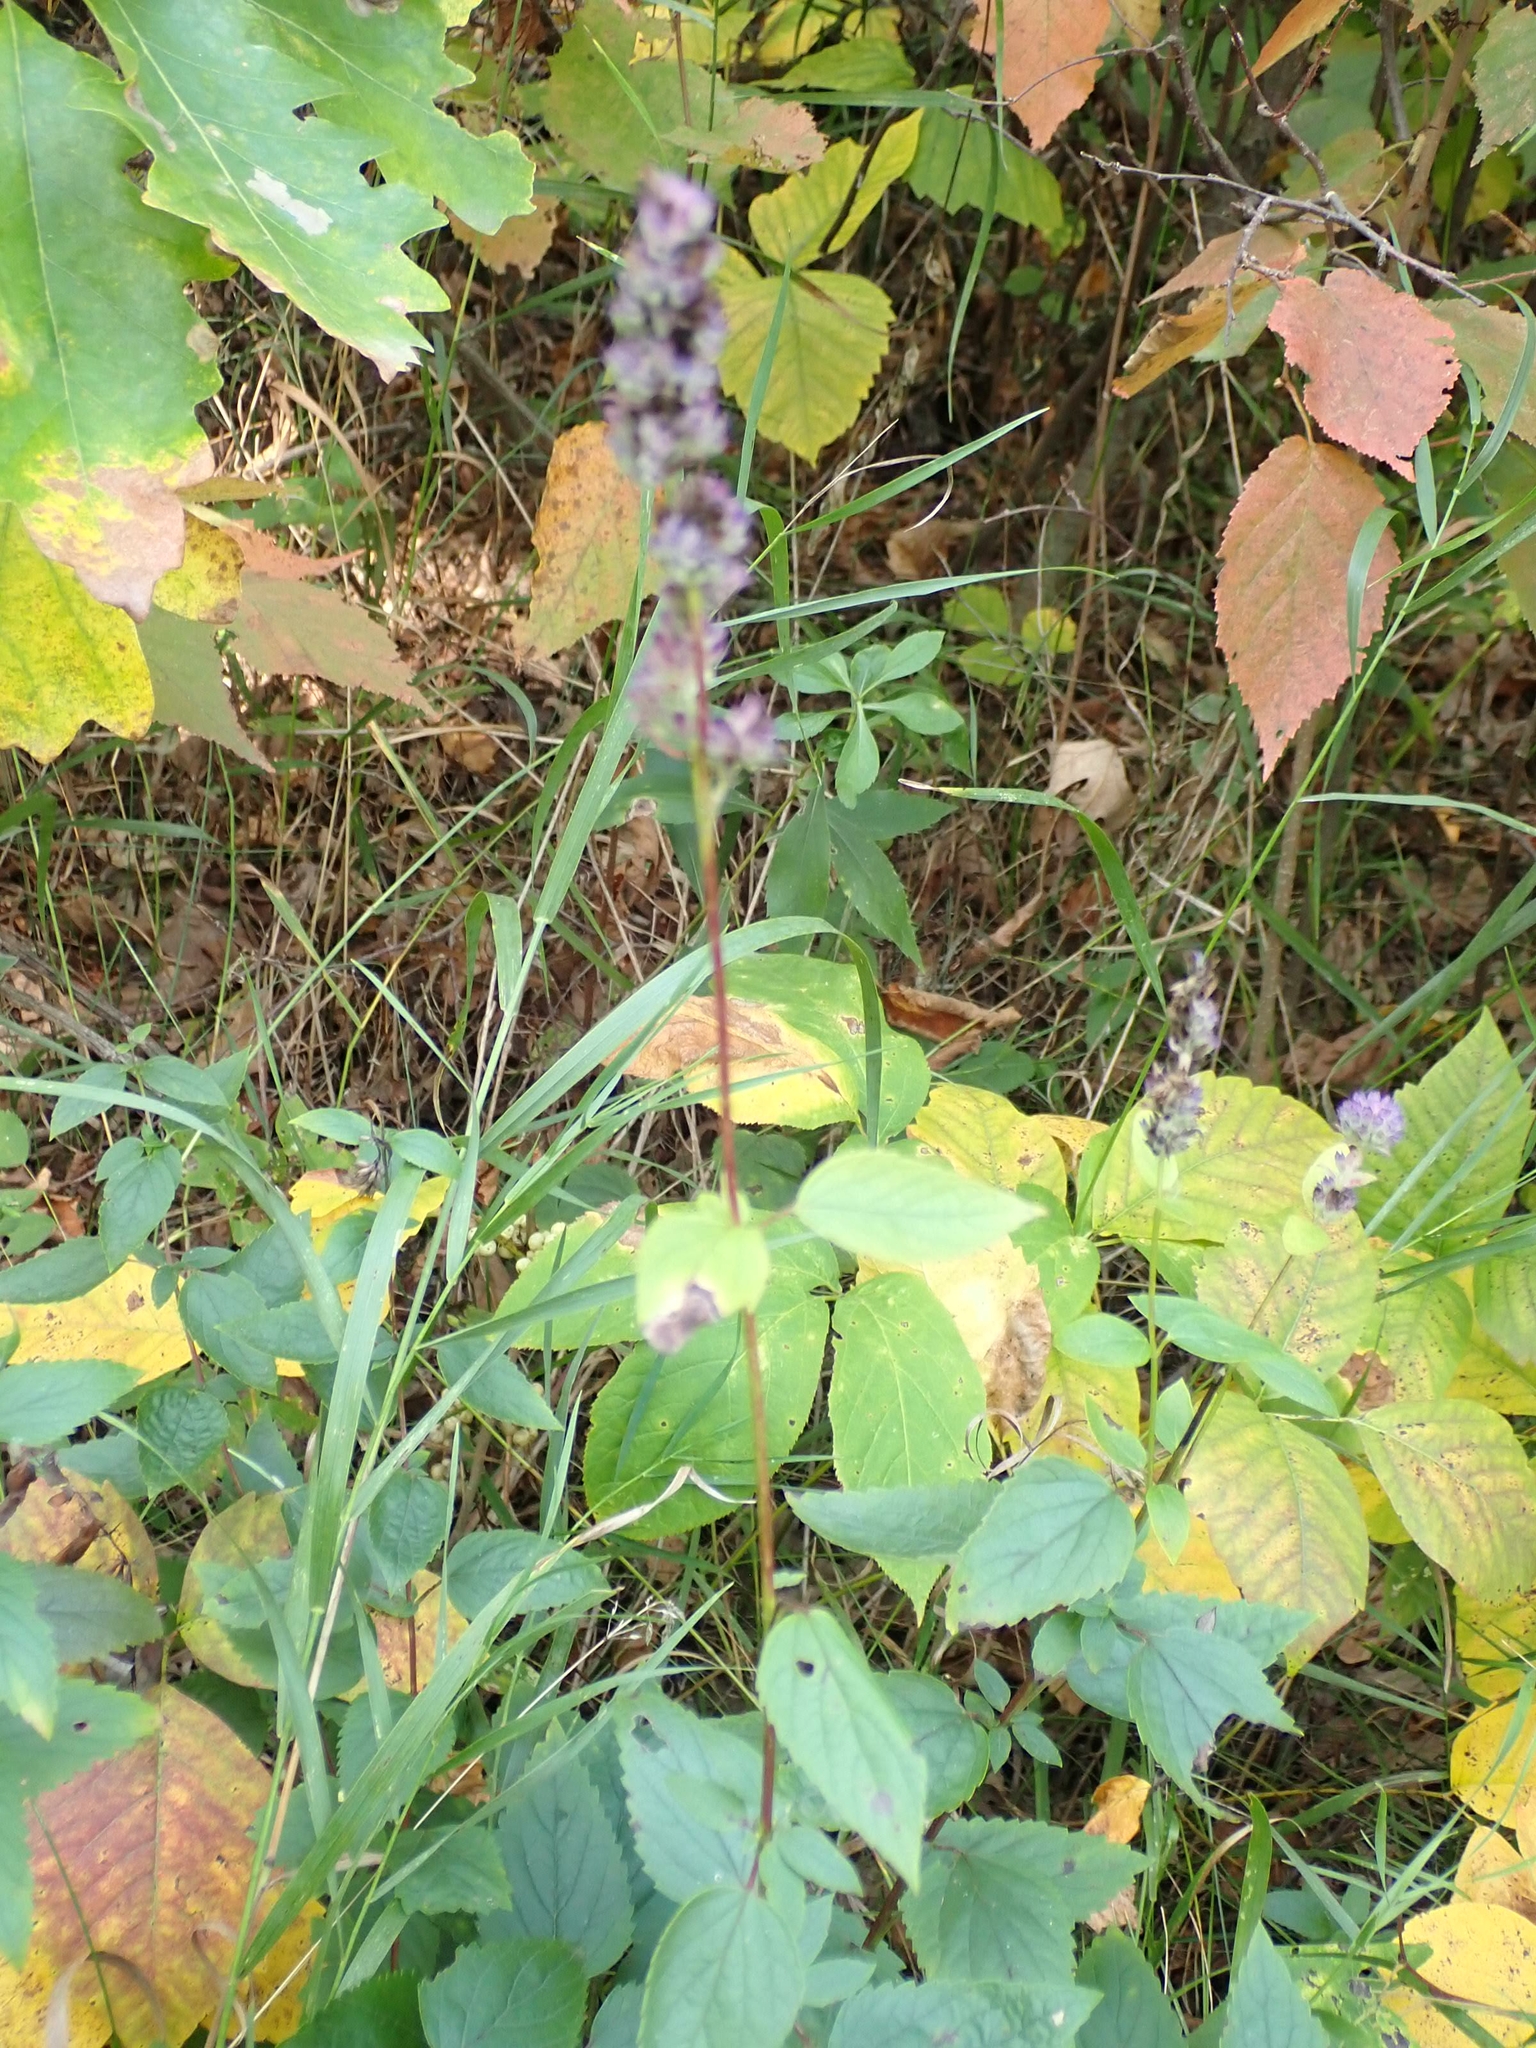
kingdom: Plantae
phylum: Tracheophyta
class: Magnoliopsida
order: Lamiales
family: Lamiaceae
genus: Agastache
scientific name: Agastache foeniculum
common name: Anise hyssop
